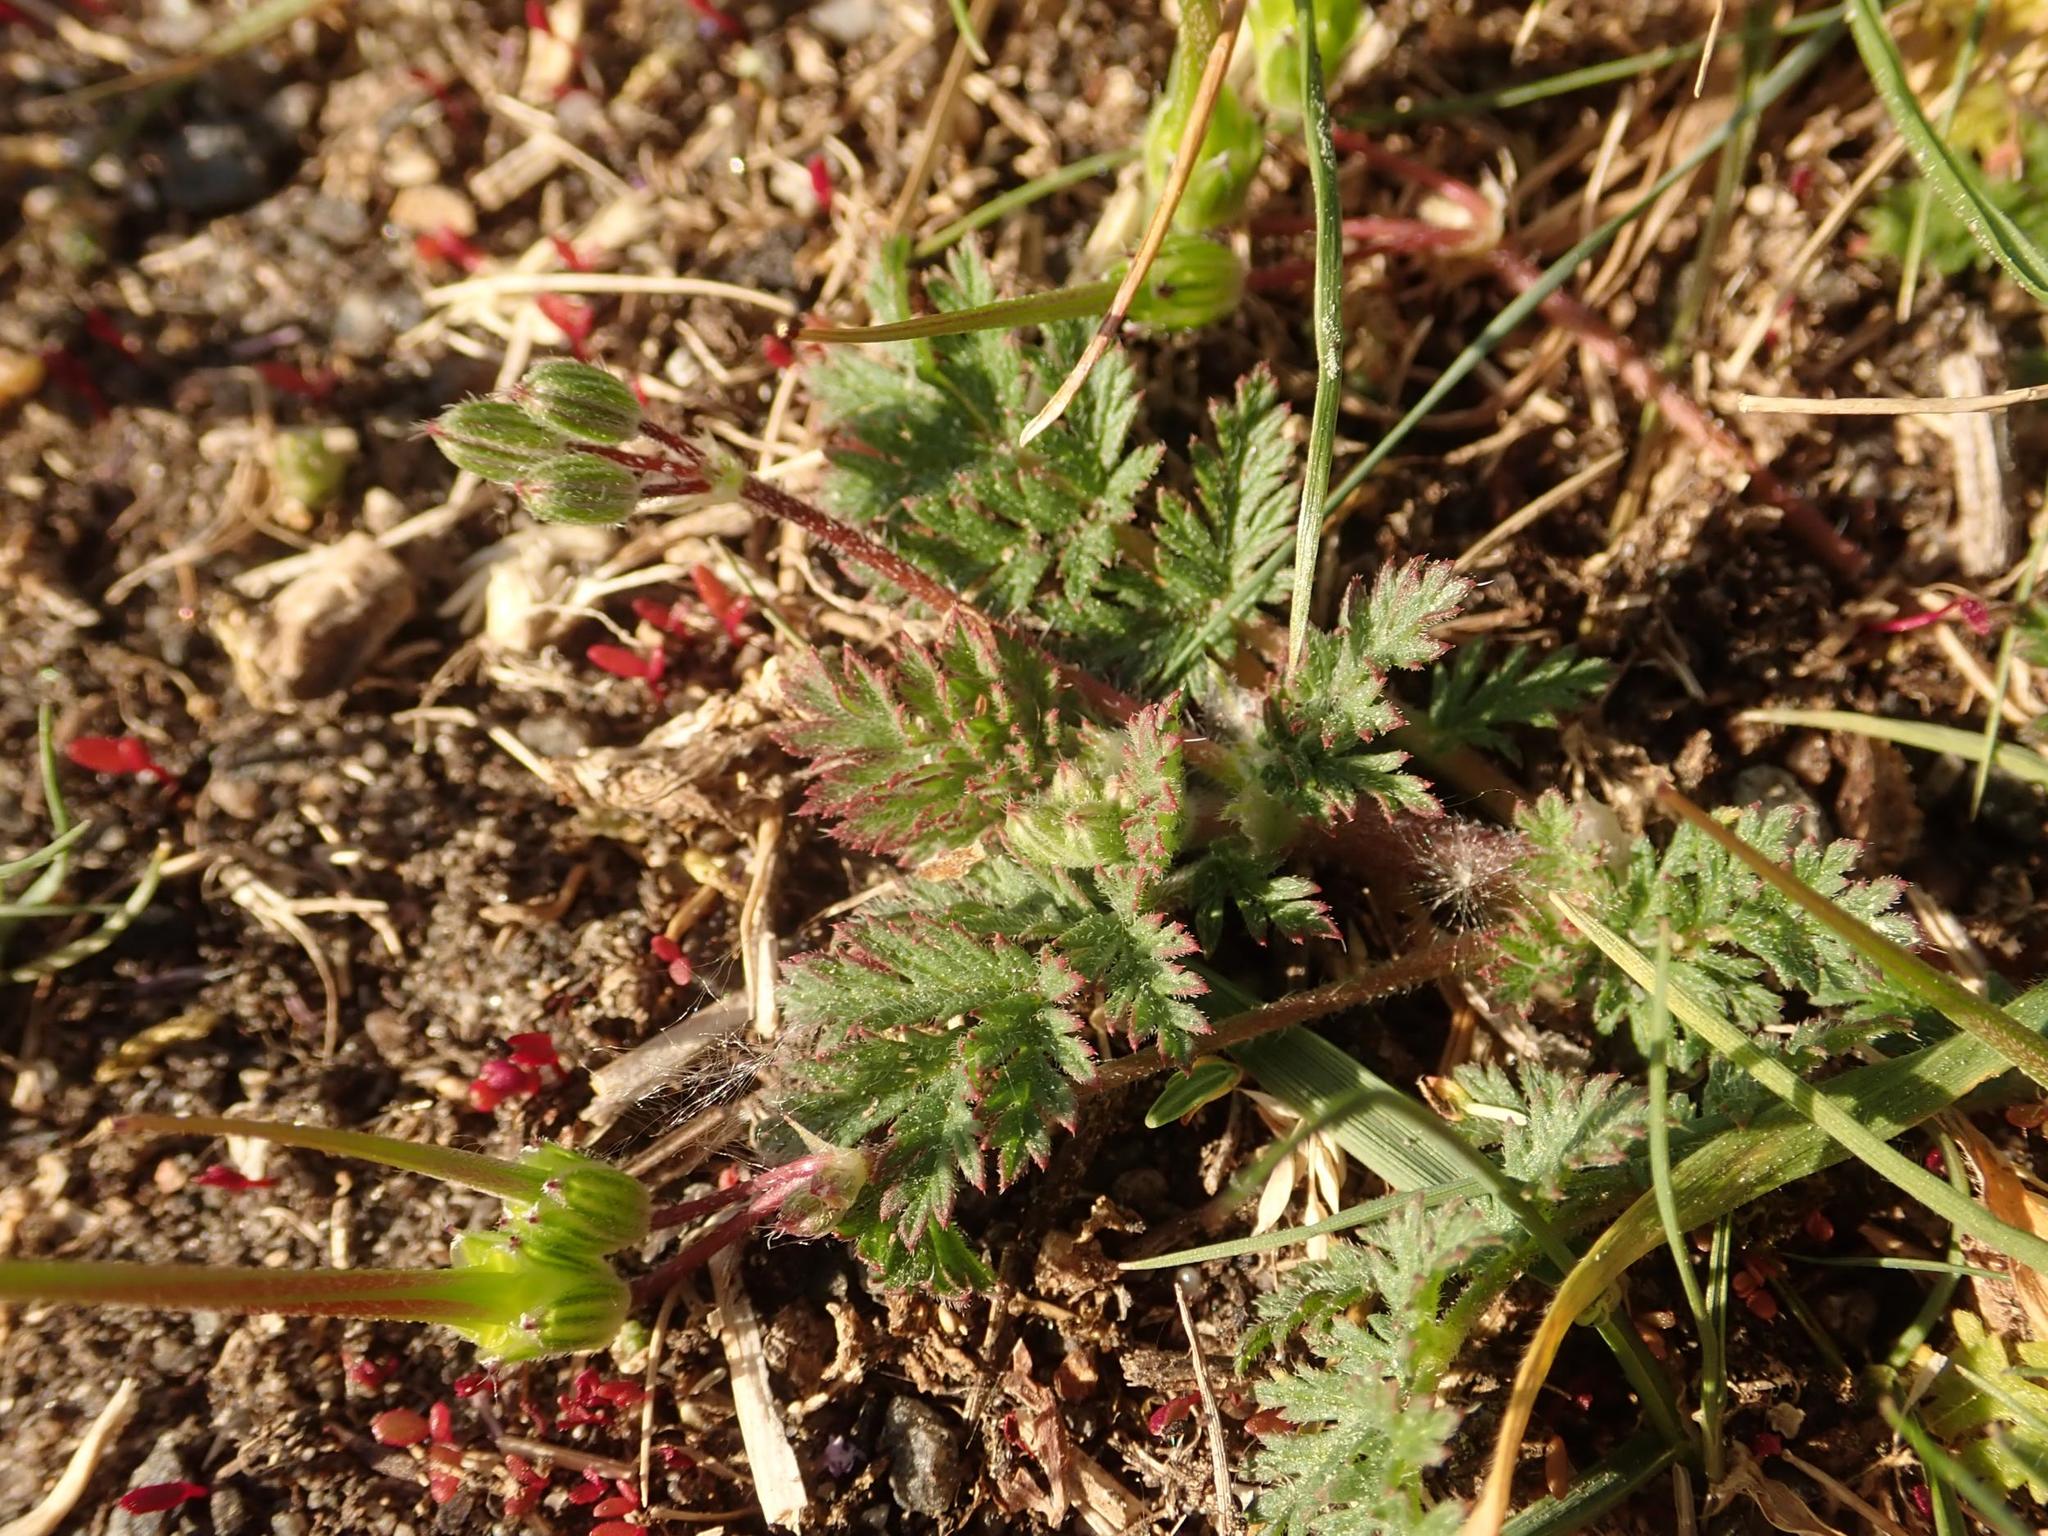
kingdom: Plantae
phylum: Tracheophyta
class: Magnoliopsida
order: Geraniales
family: Geraniaceae
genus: Erodium
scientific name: Erodium cicutarium
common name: Common stork's-bill
